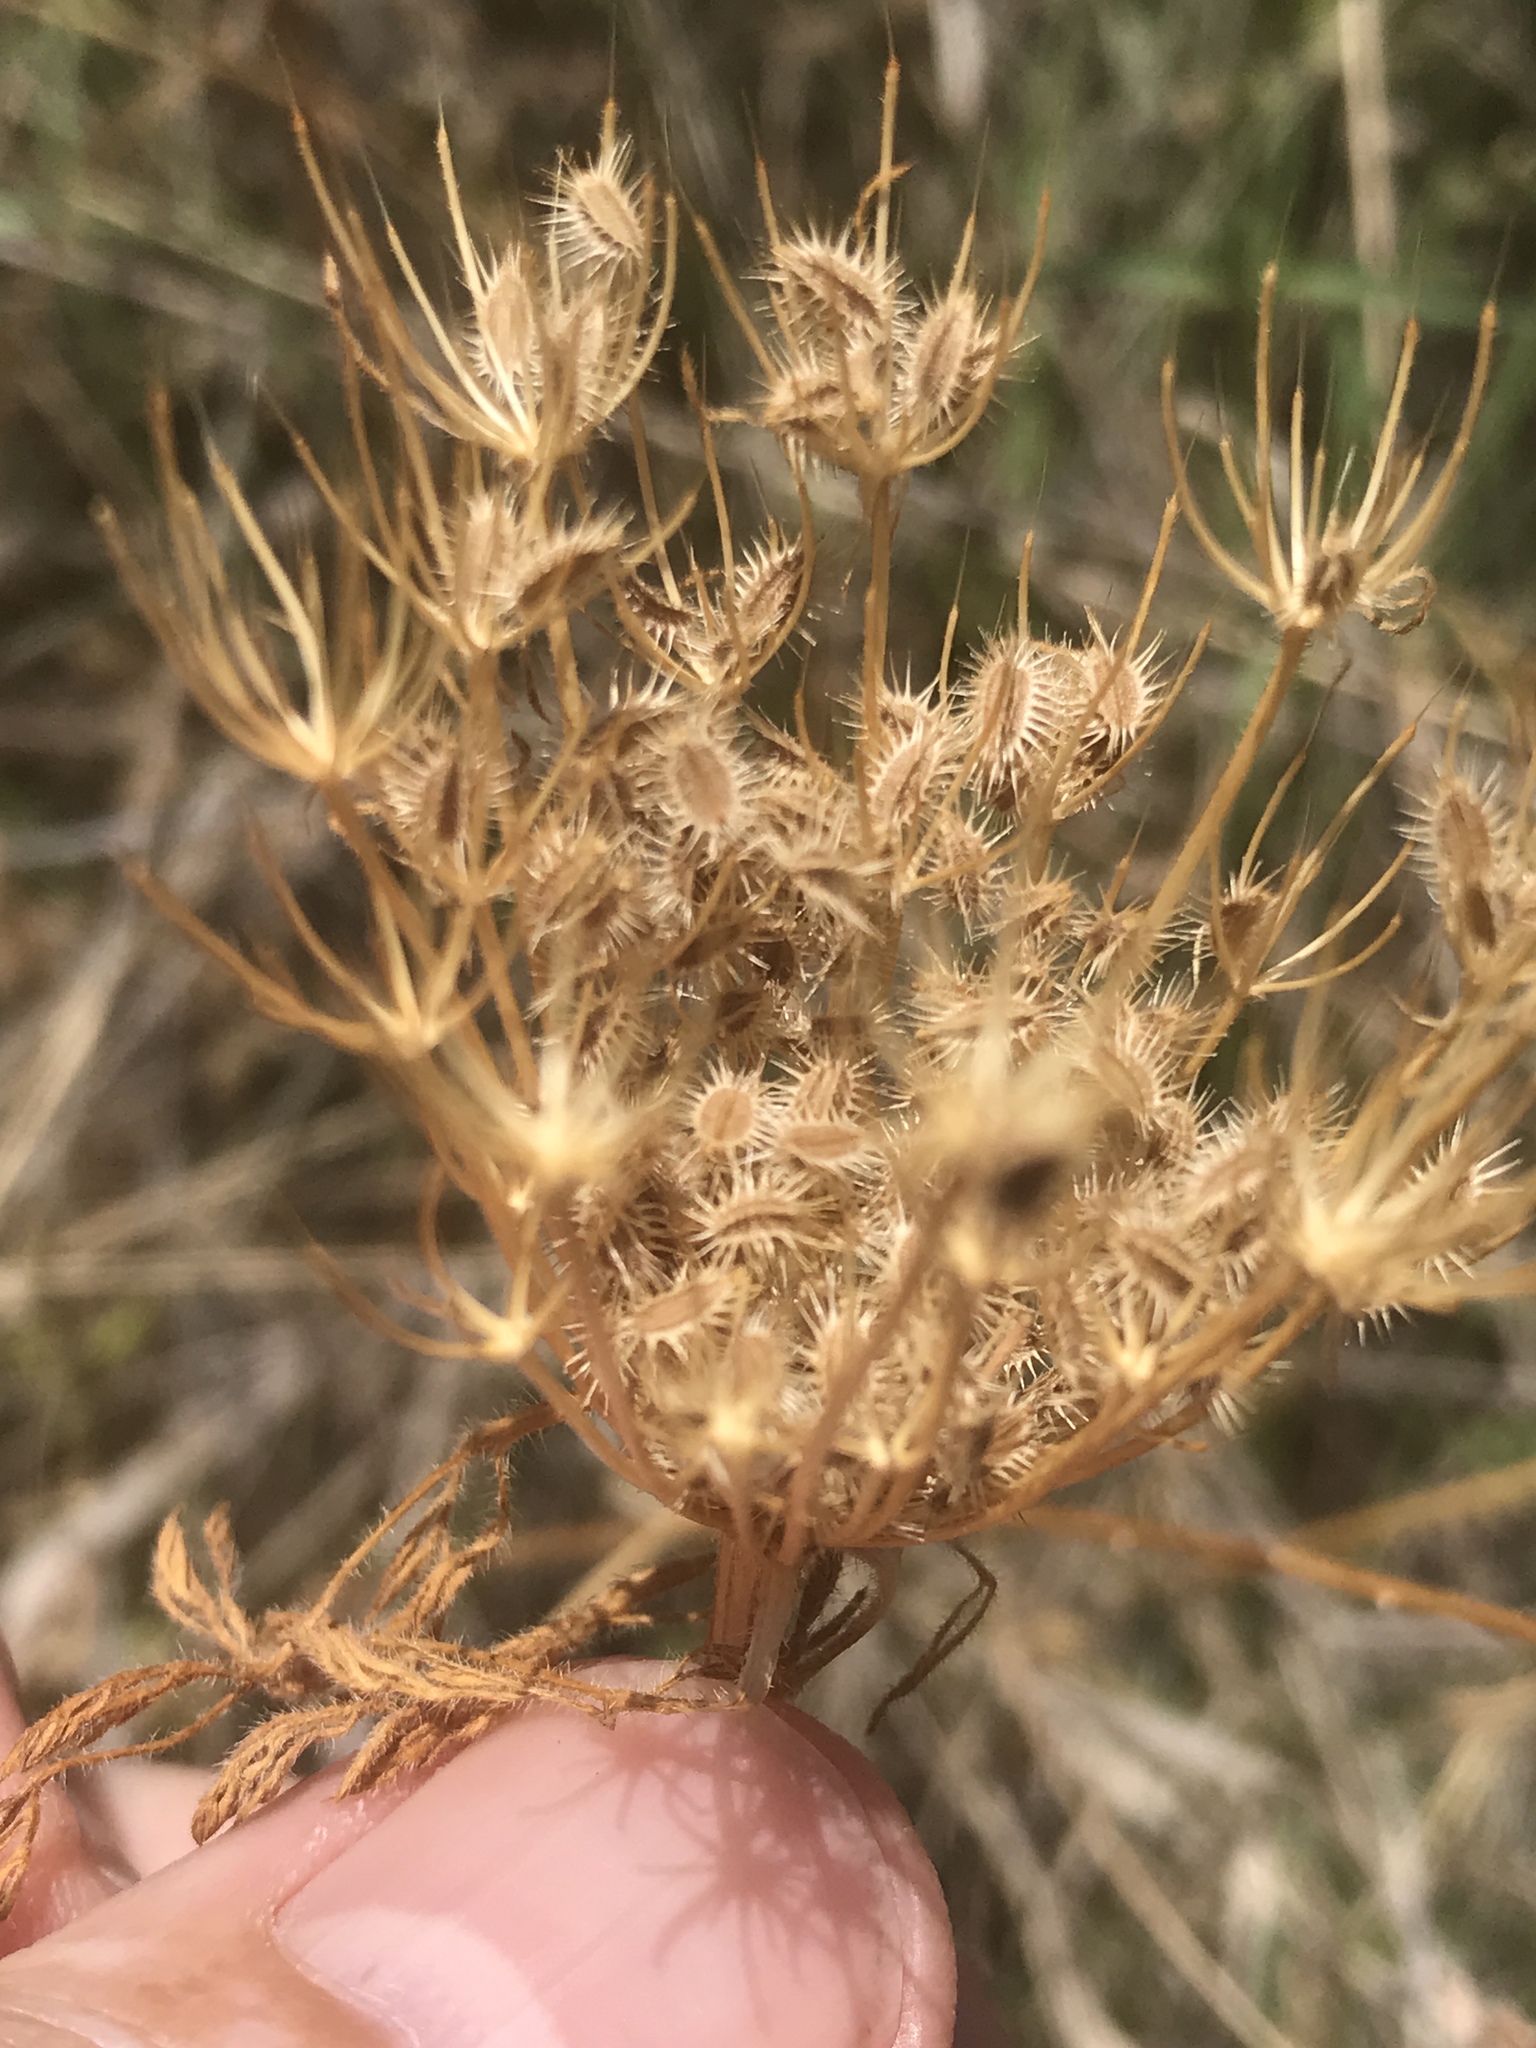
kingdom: Plantae
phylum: Tracheophyta
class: Magnoliopsida
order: Apiales
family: Apiaceae
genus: Daucus
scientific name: Daucus pusillus
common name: Southwest wild carrot
